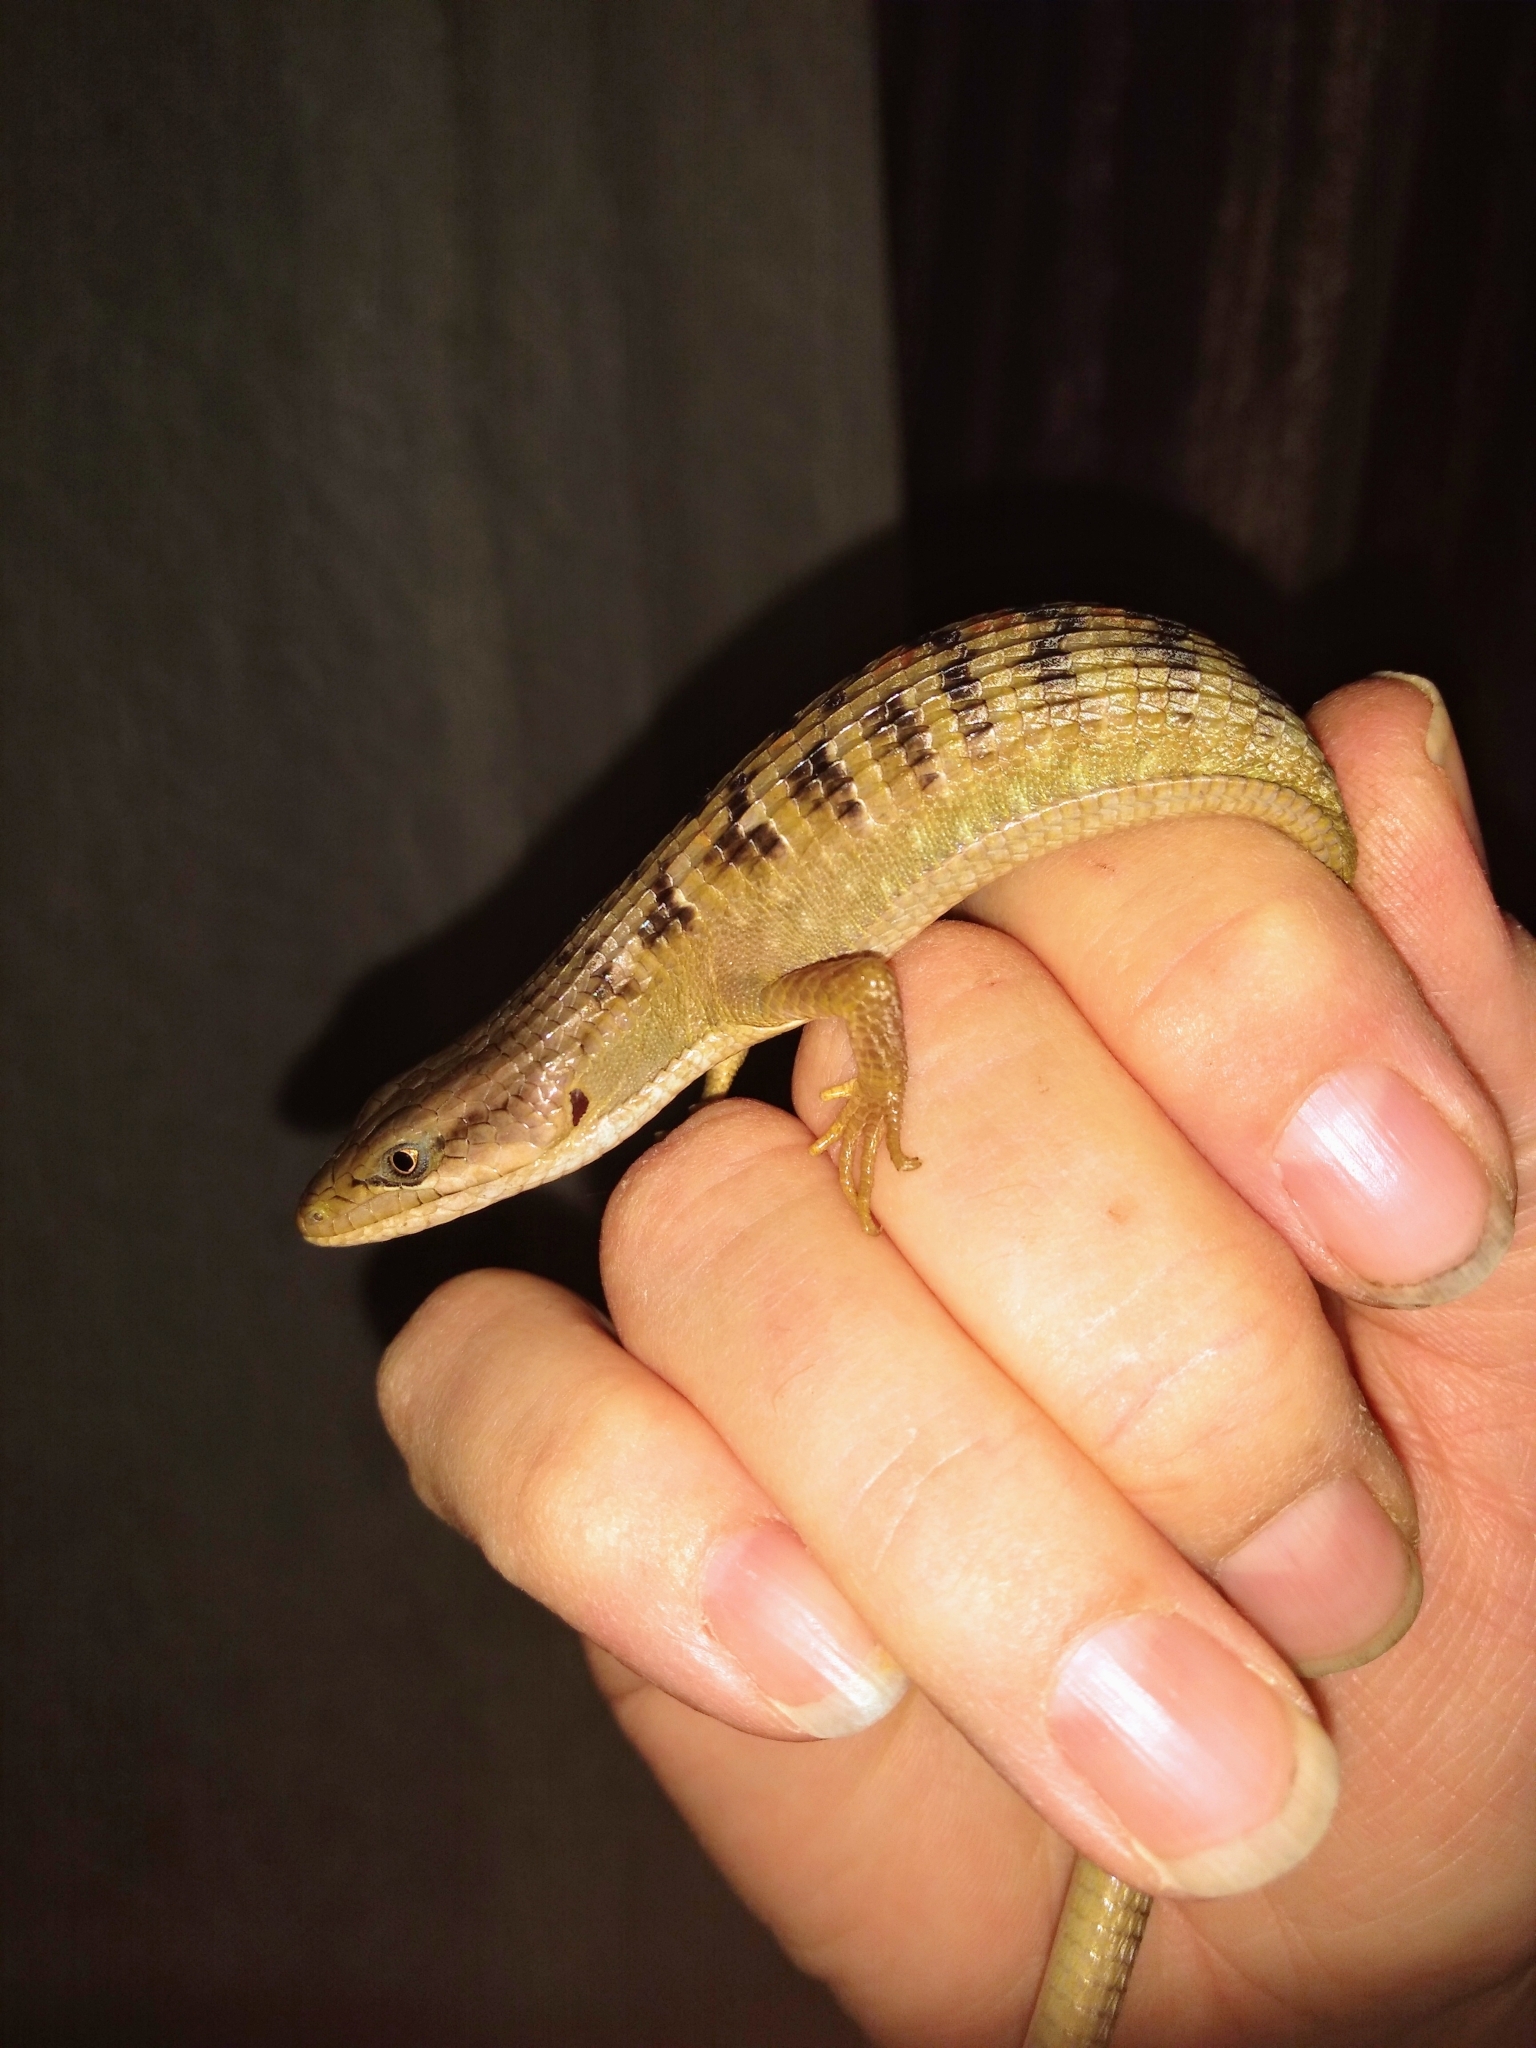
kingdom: Animalia
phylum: Chordata
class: Squamata
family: Anguidae
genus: Elgaria
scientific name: Elgaria multicarinata
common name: Southern alligator lizard
